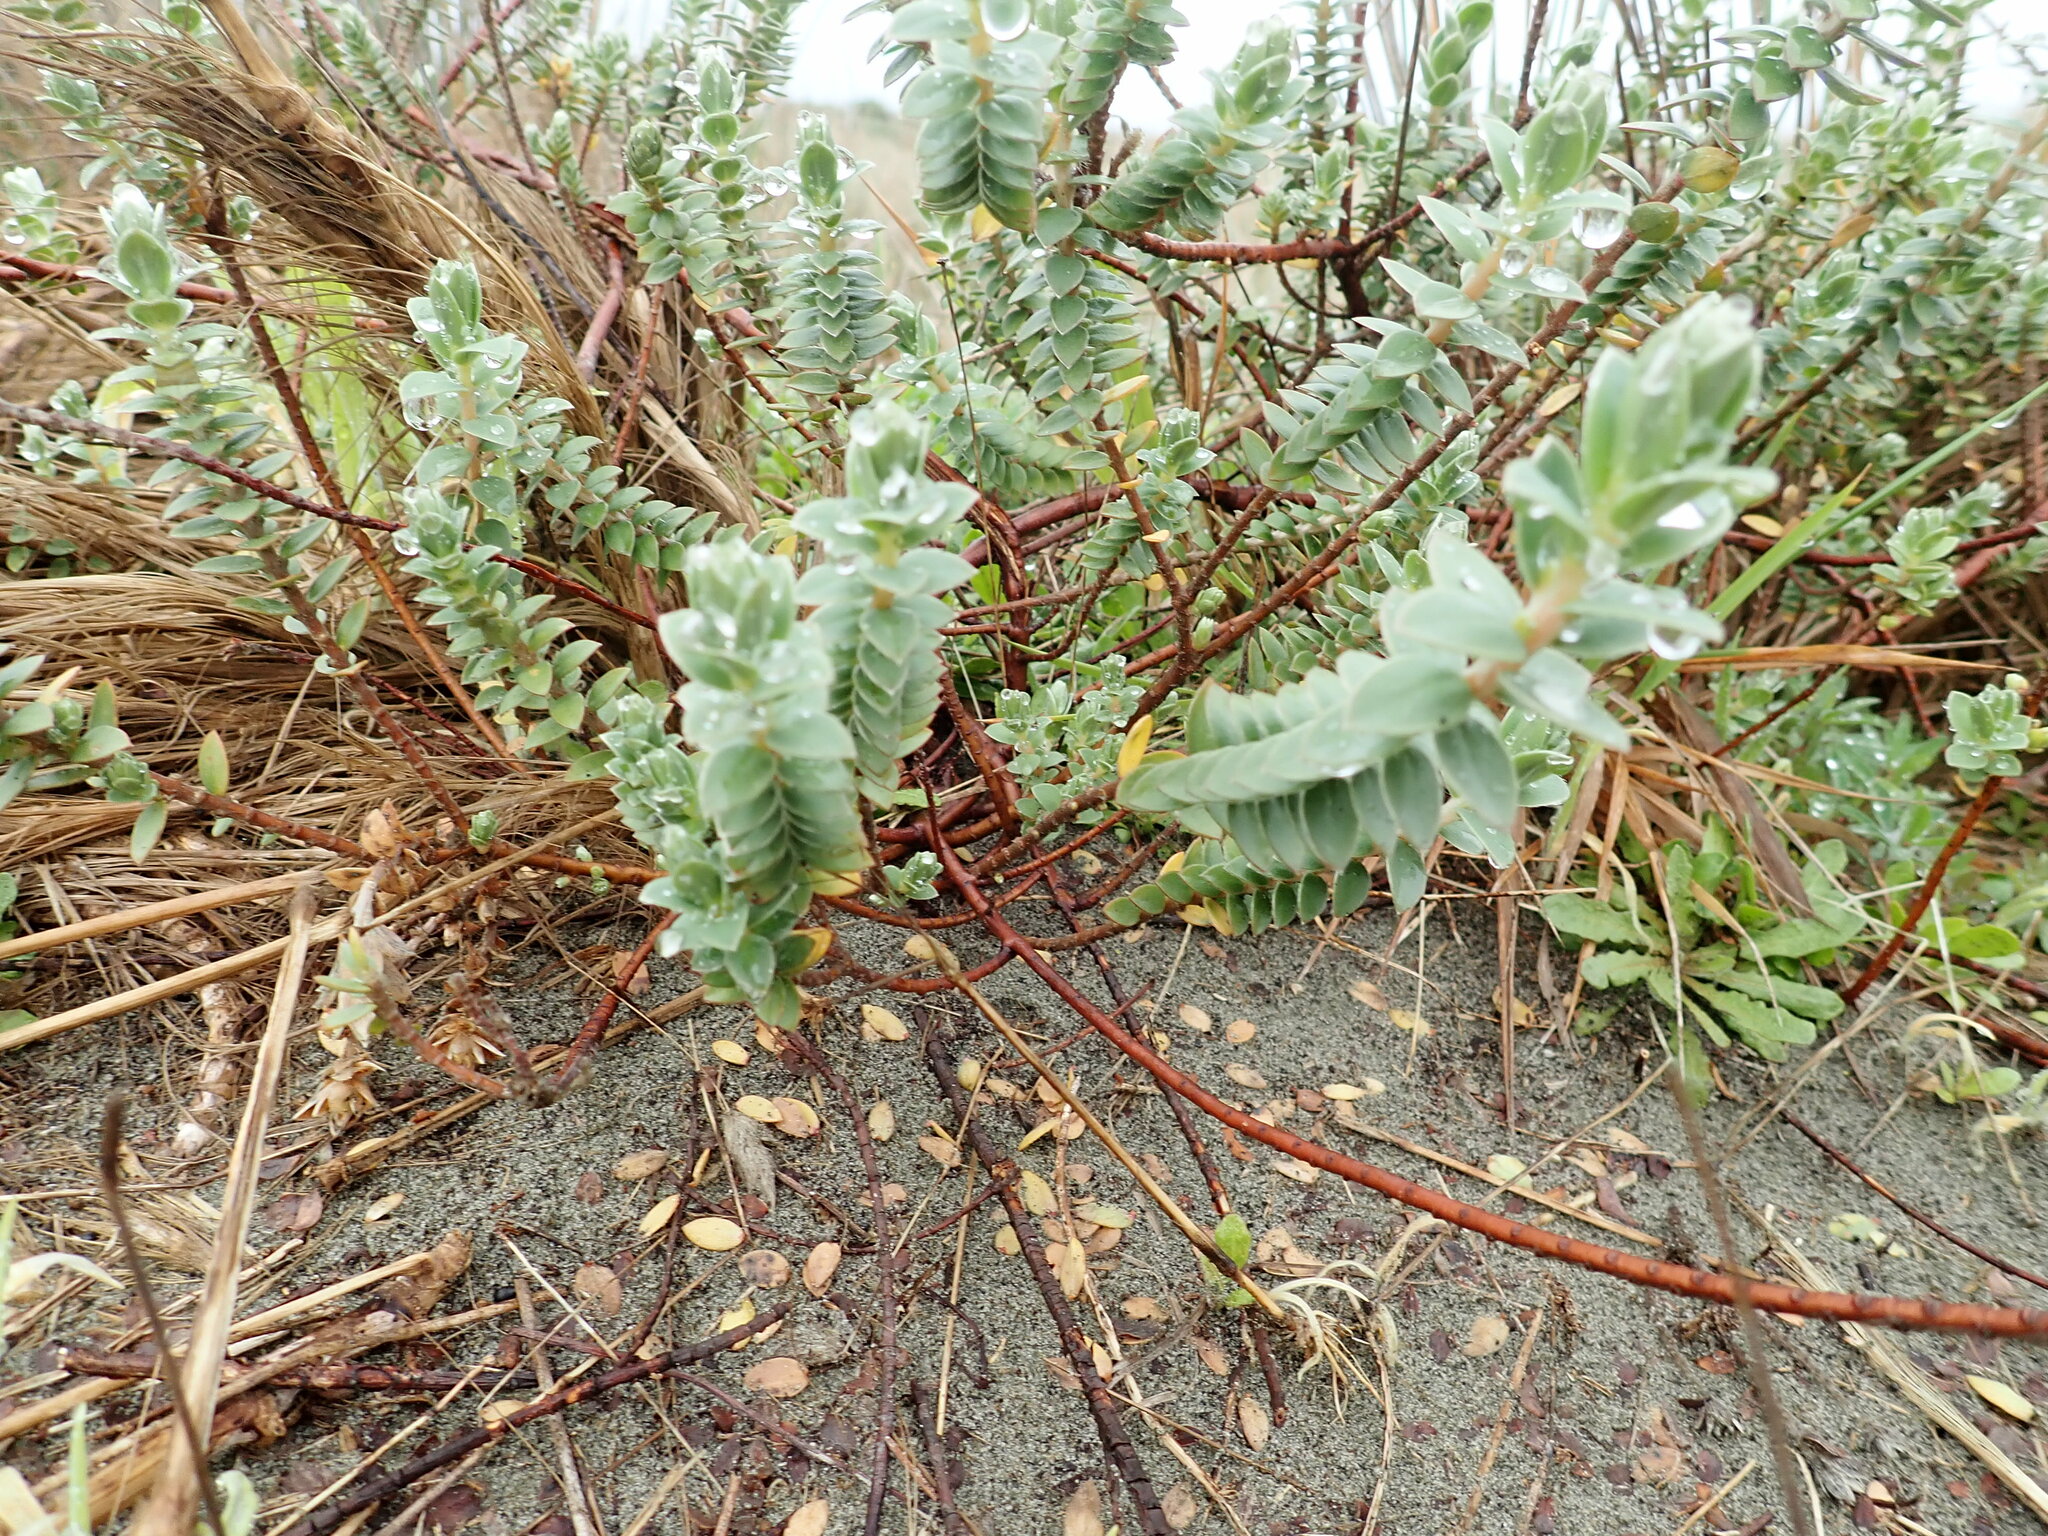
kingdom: Plantae
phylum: Tracheophyta
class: Magnoliopsida
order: Malvales
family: Thymelaeaceae
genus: Pimelea
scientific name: Pimelea villosa
